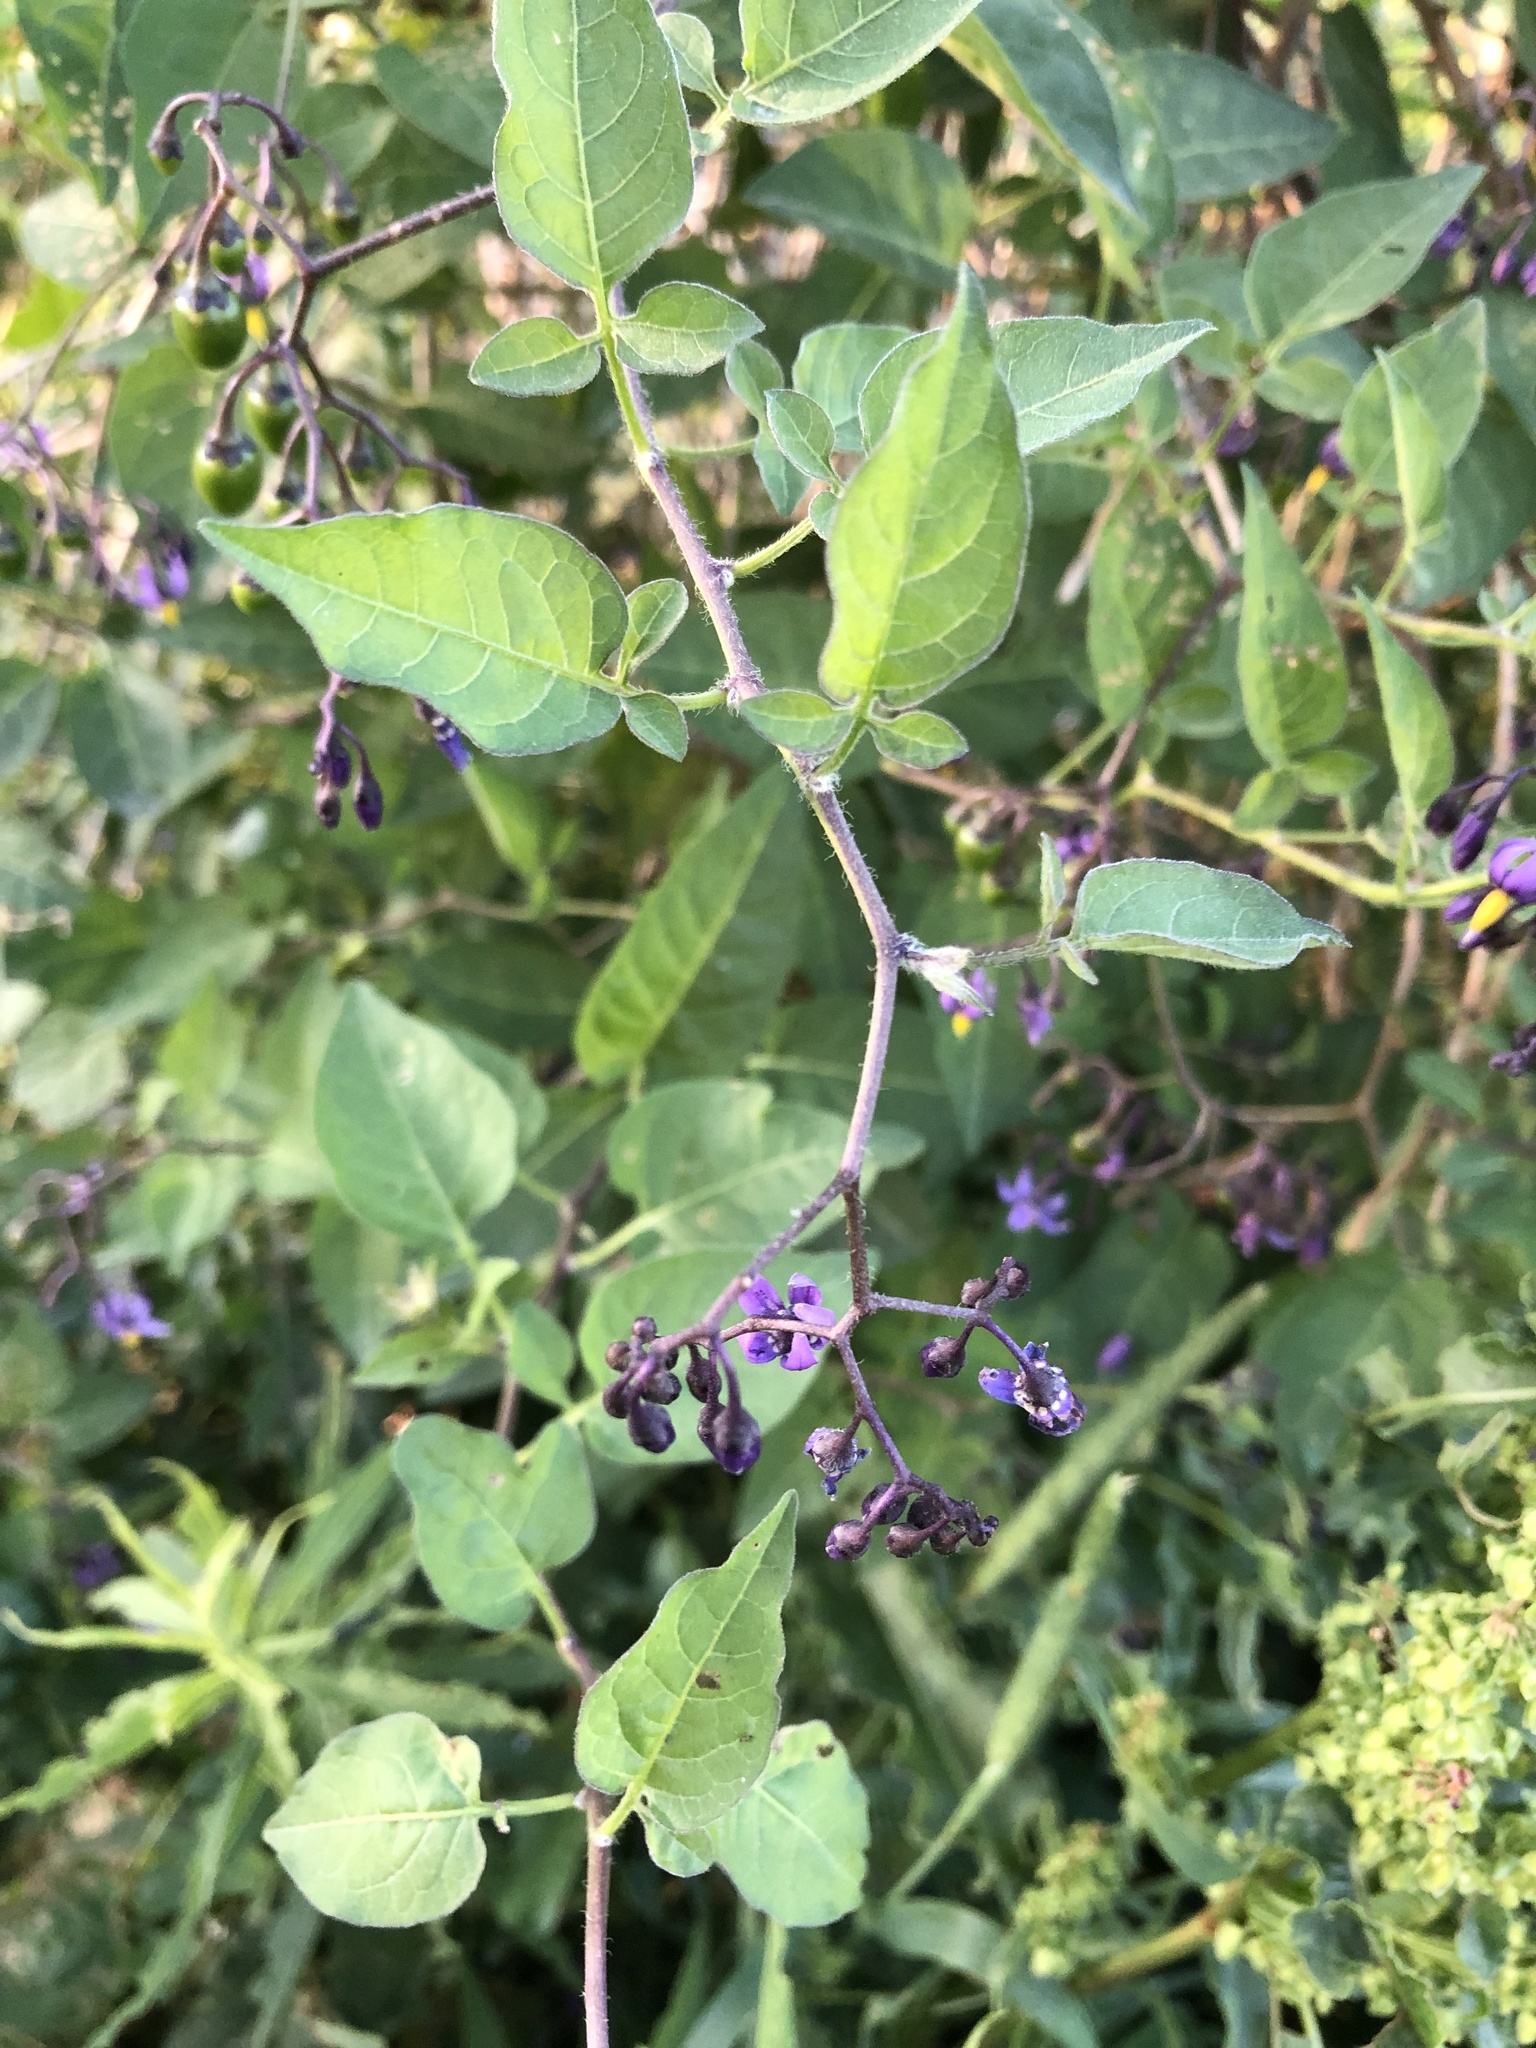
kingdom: Plantae
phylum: Tracheophyta
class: Magnoliopsida
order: Solanales
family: Solanaceae
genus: Solanum
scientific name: Solanum dulcamara
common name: Climbing nightshade
